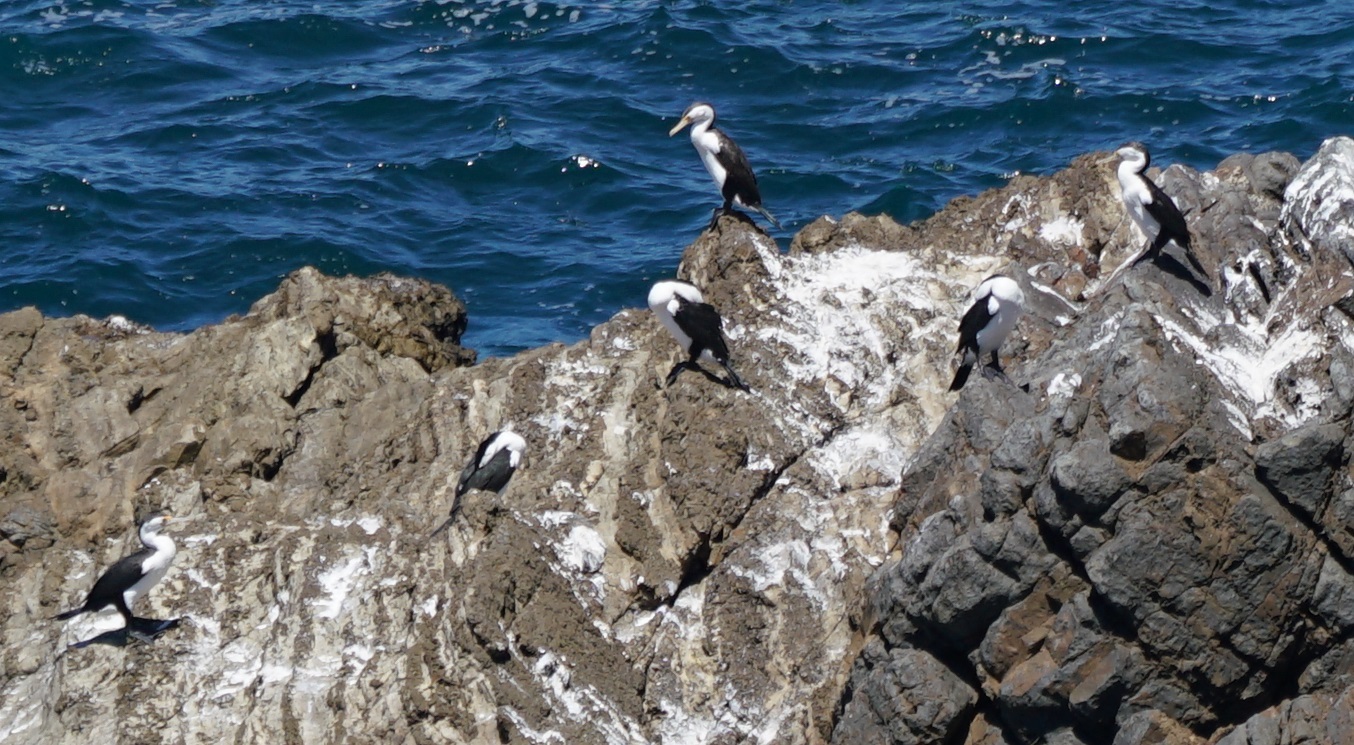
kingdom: Animalia
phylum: Chordata
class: Aves
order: Suliformes
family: Phalacrocoracidae
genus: Phalacrocorax
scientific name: Phalacrocorax varius
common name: Pied cormorant
